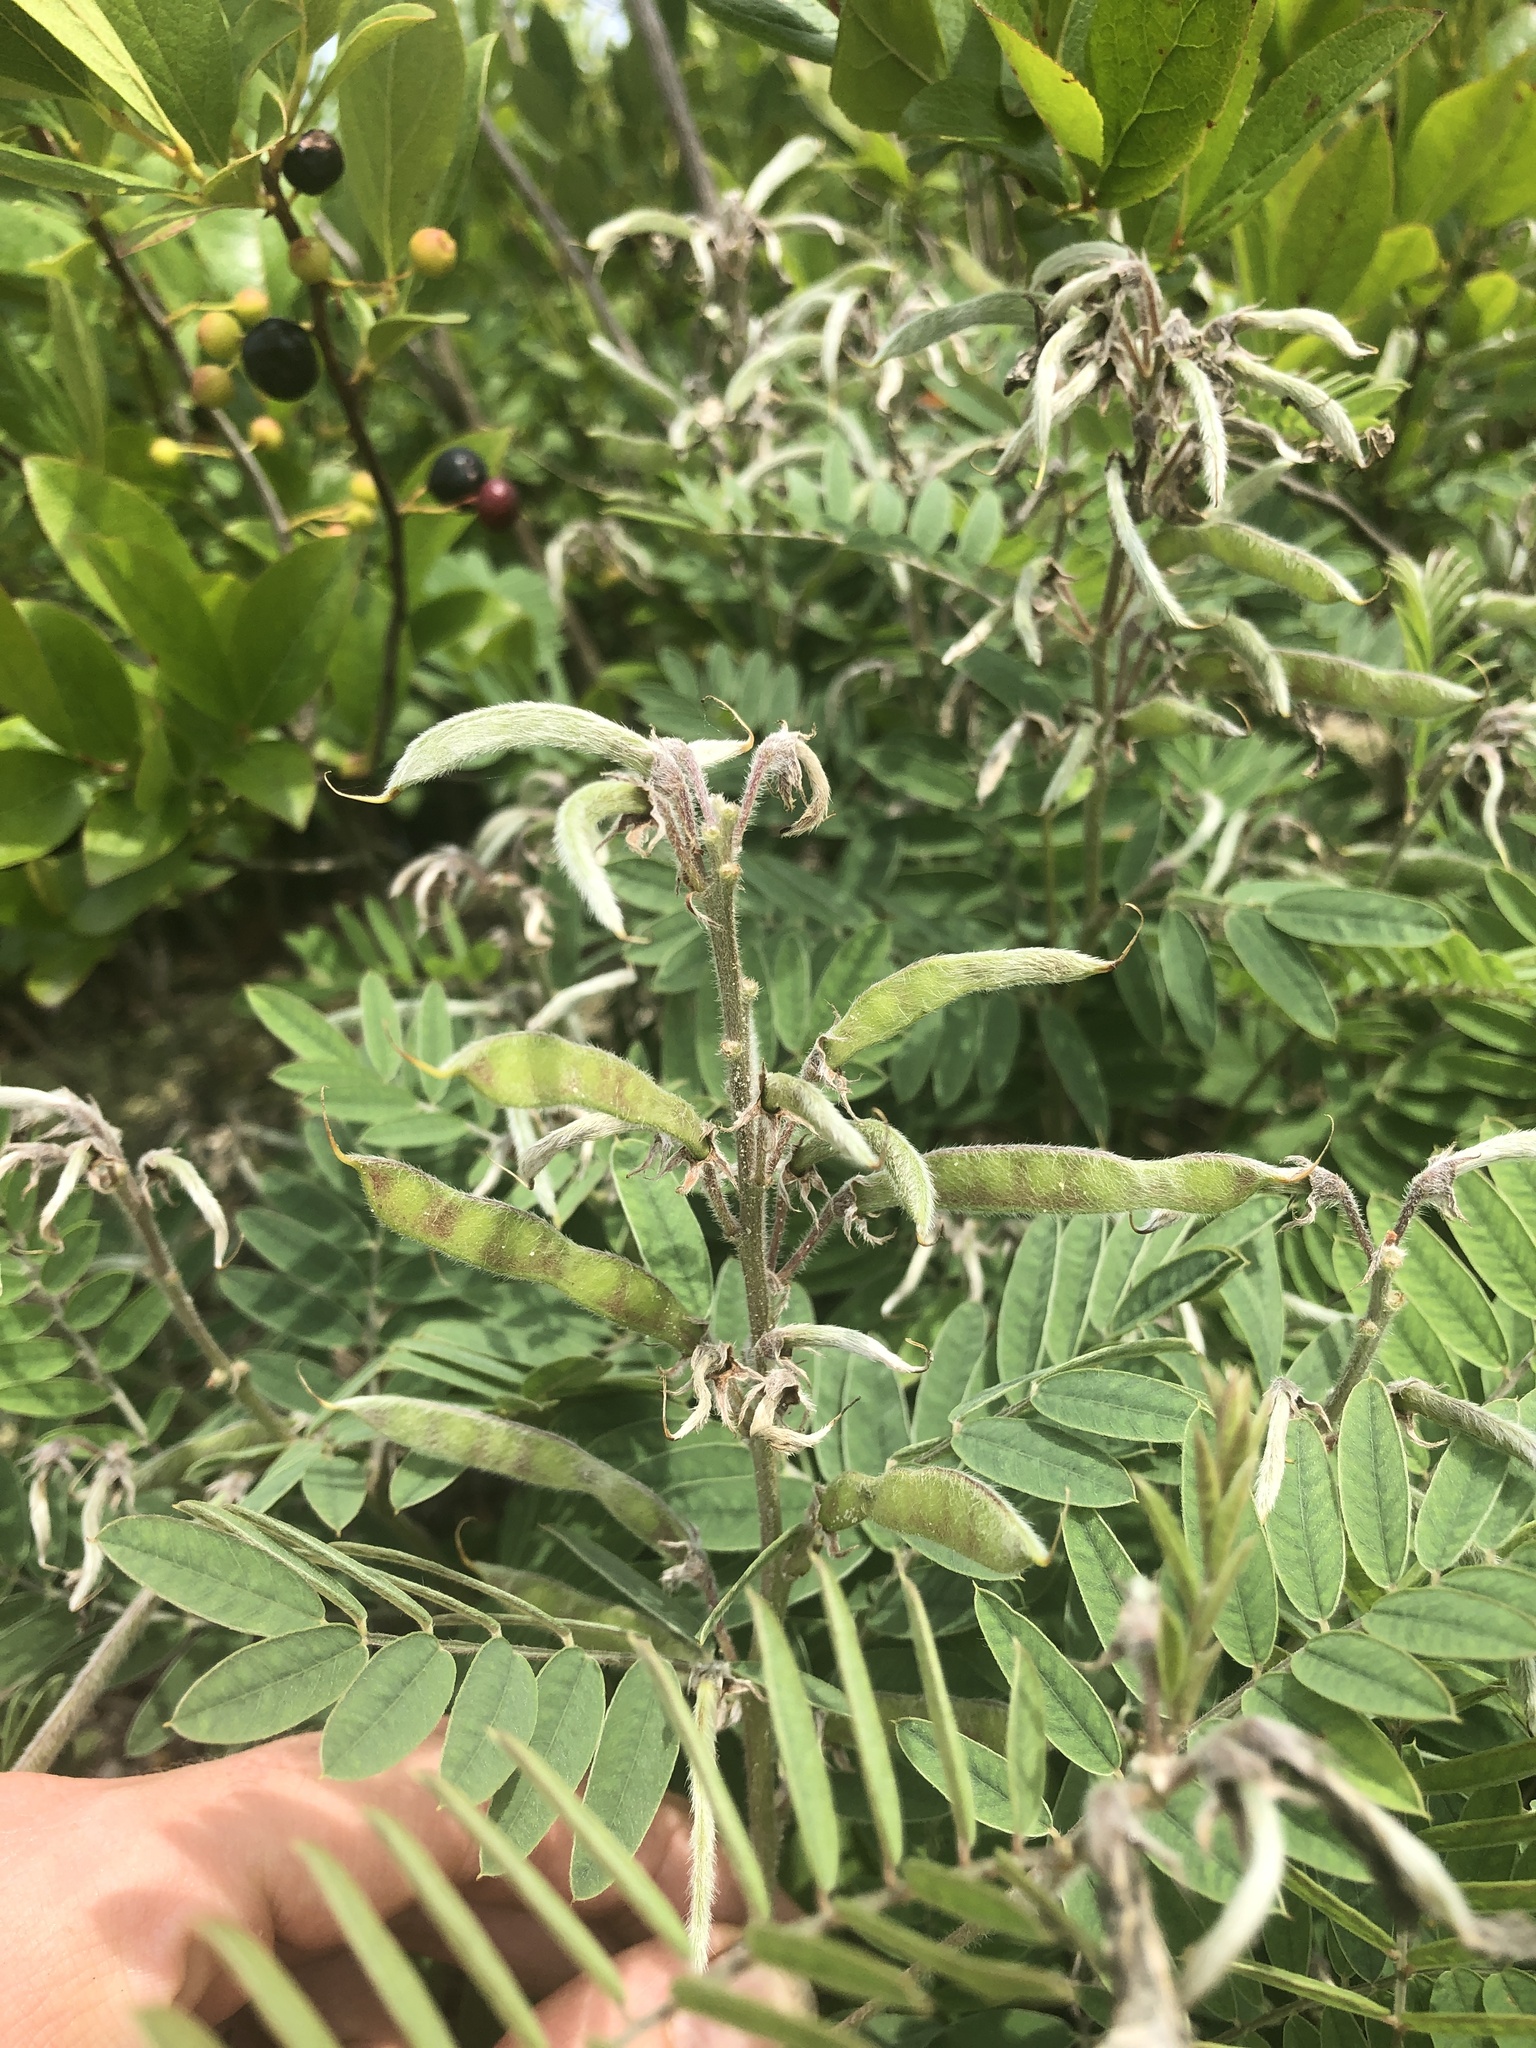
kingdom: Plantae
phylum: Tracheophyta
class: Magnoliopsida
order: Fabales
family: Fabaceae
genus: Tephrosia
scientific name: Tephrosia virginiana
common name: Rabbit-pea
